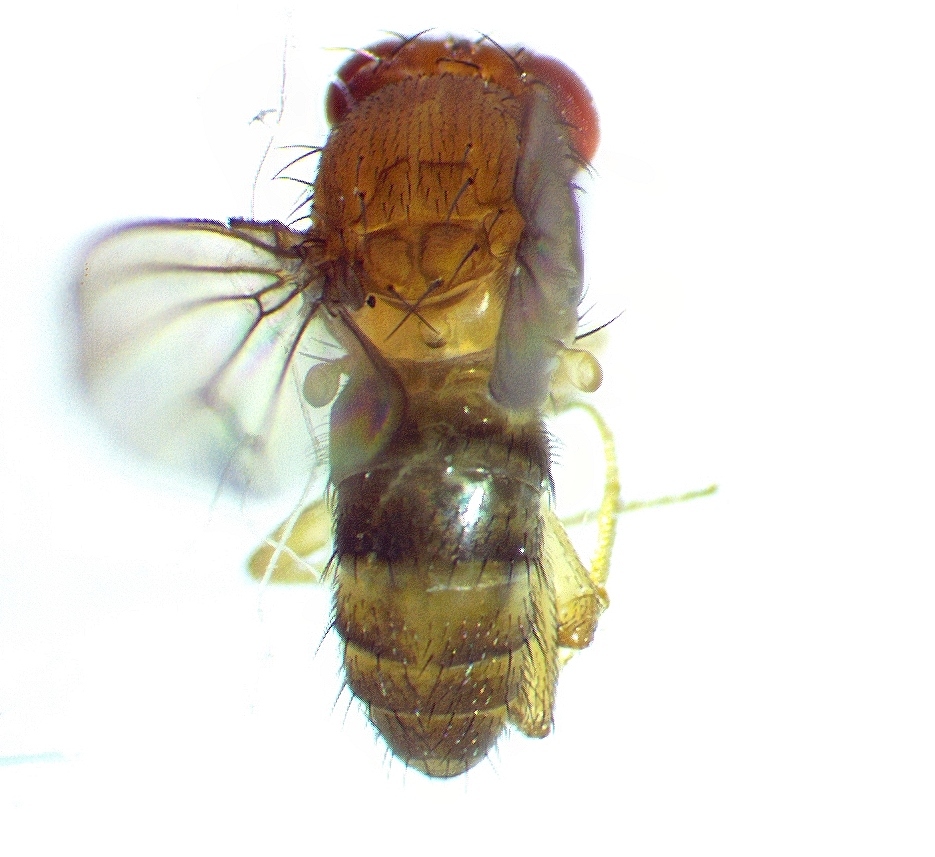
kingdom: Animalia
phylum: Arthropoda
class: Insecta
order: Diptera
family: Drosophilidae
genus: Drosophila
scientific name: Drosophila immigrans
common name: Pomace fly
